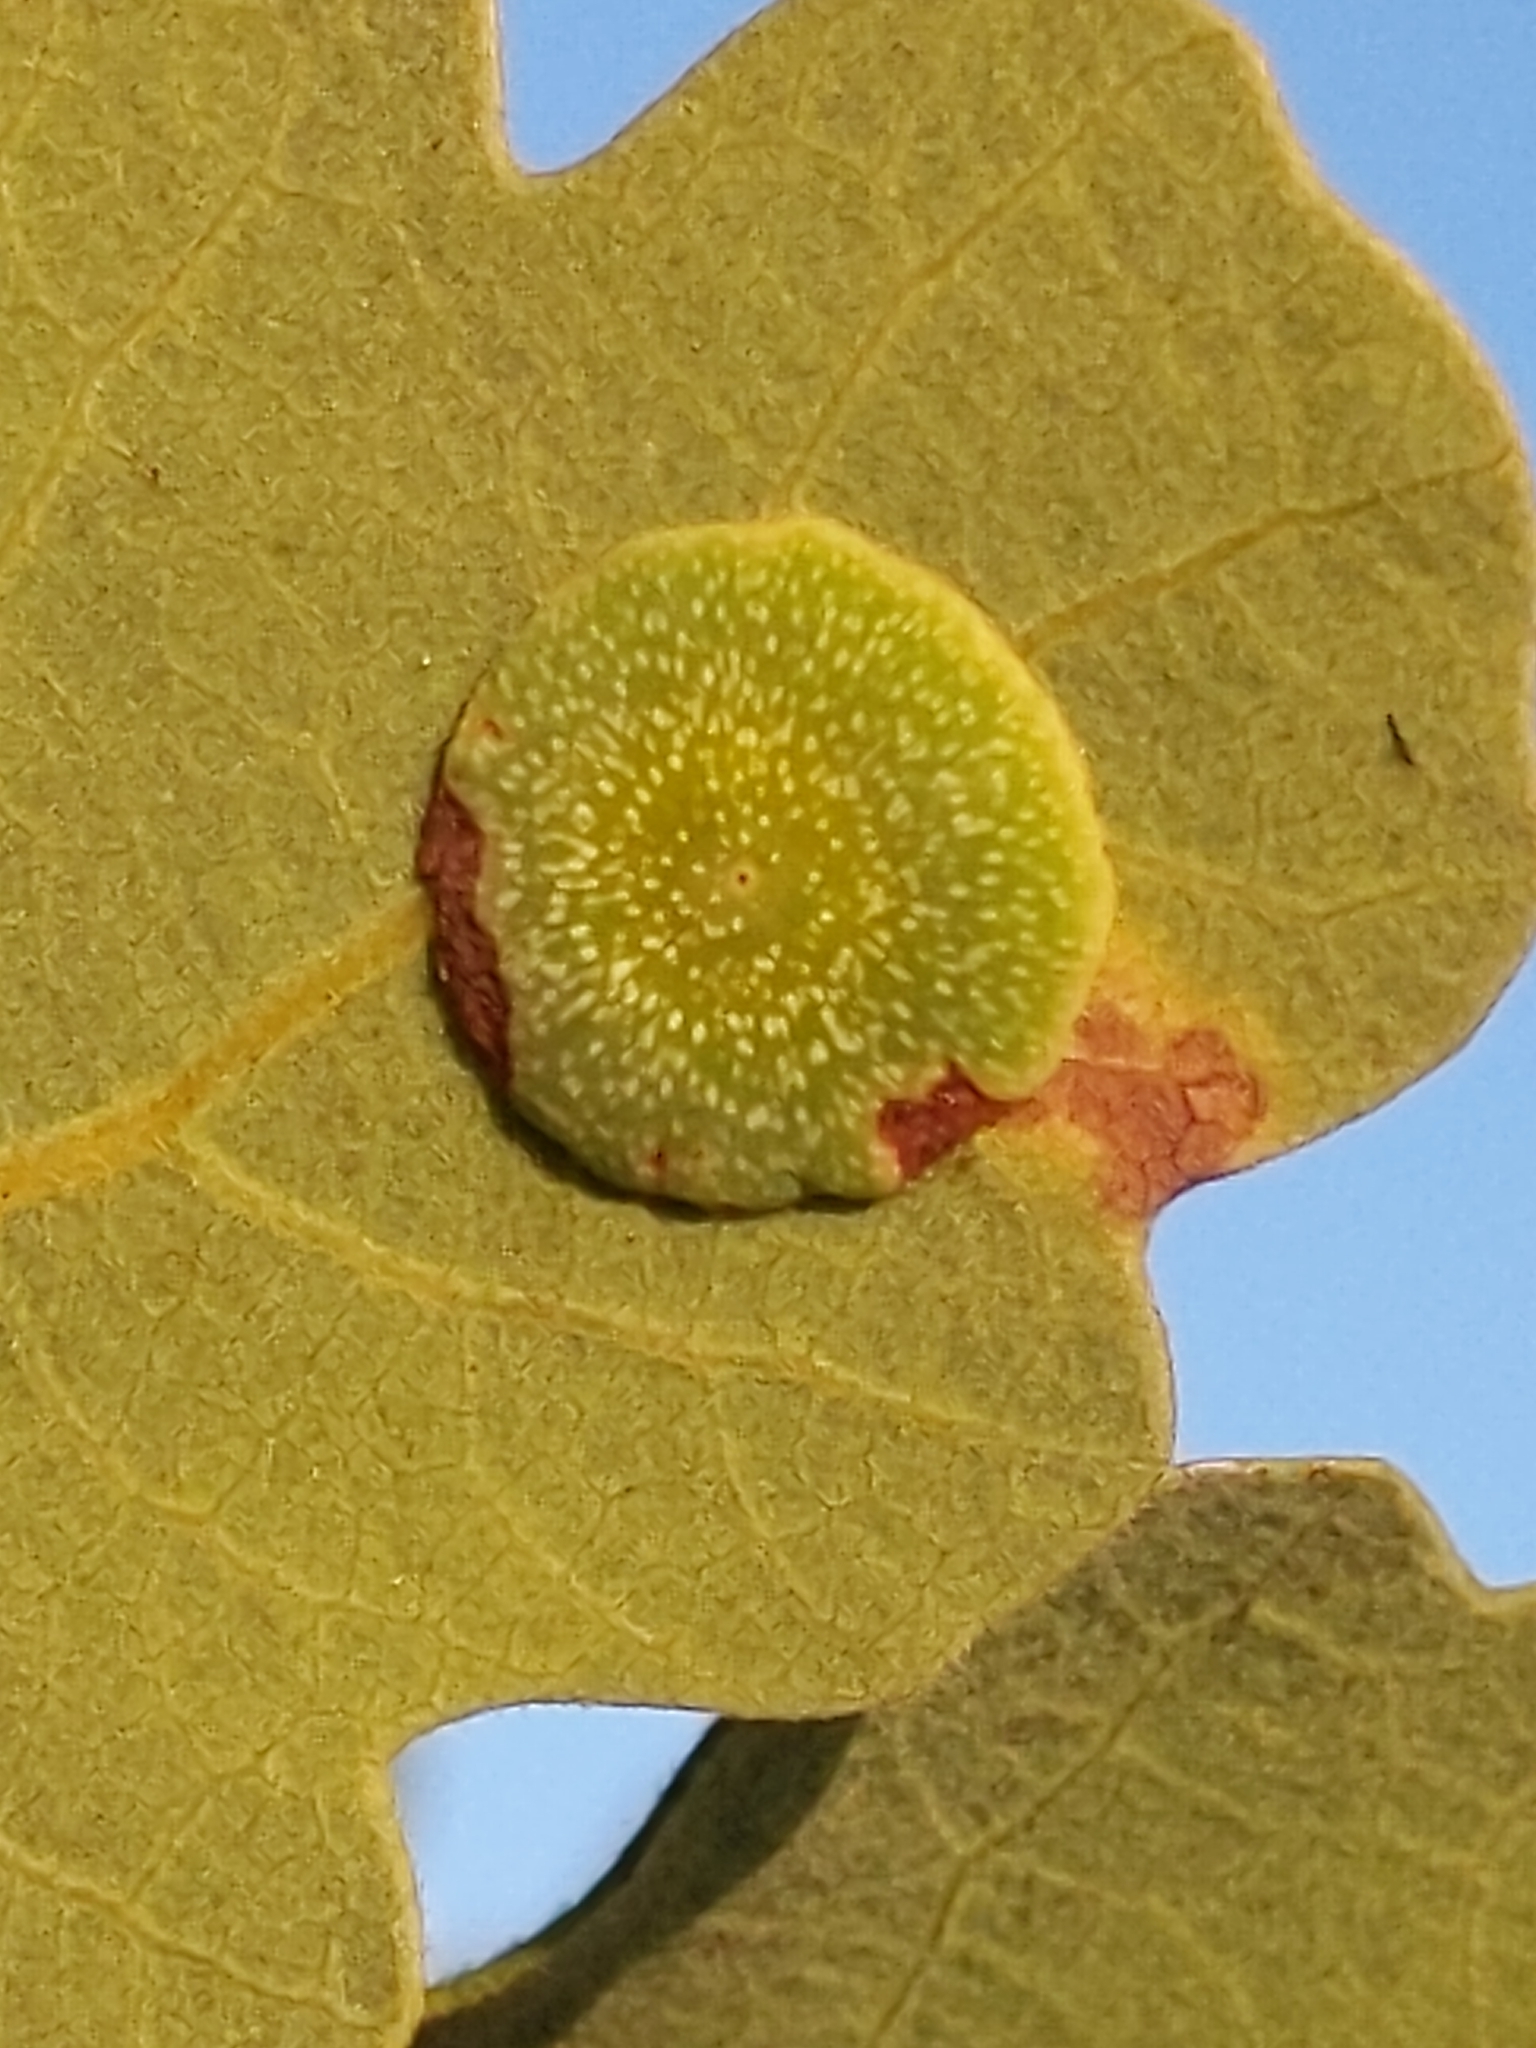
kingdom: Animalia
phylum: Arthropoda
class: Insecta
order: Hymenoptera
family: Cynipidae
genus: Andricus
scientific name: Andricus
